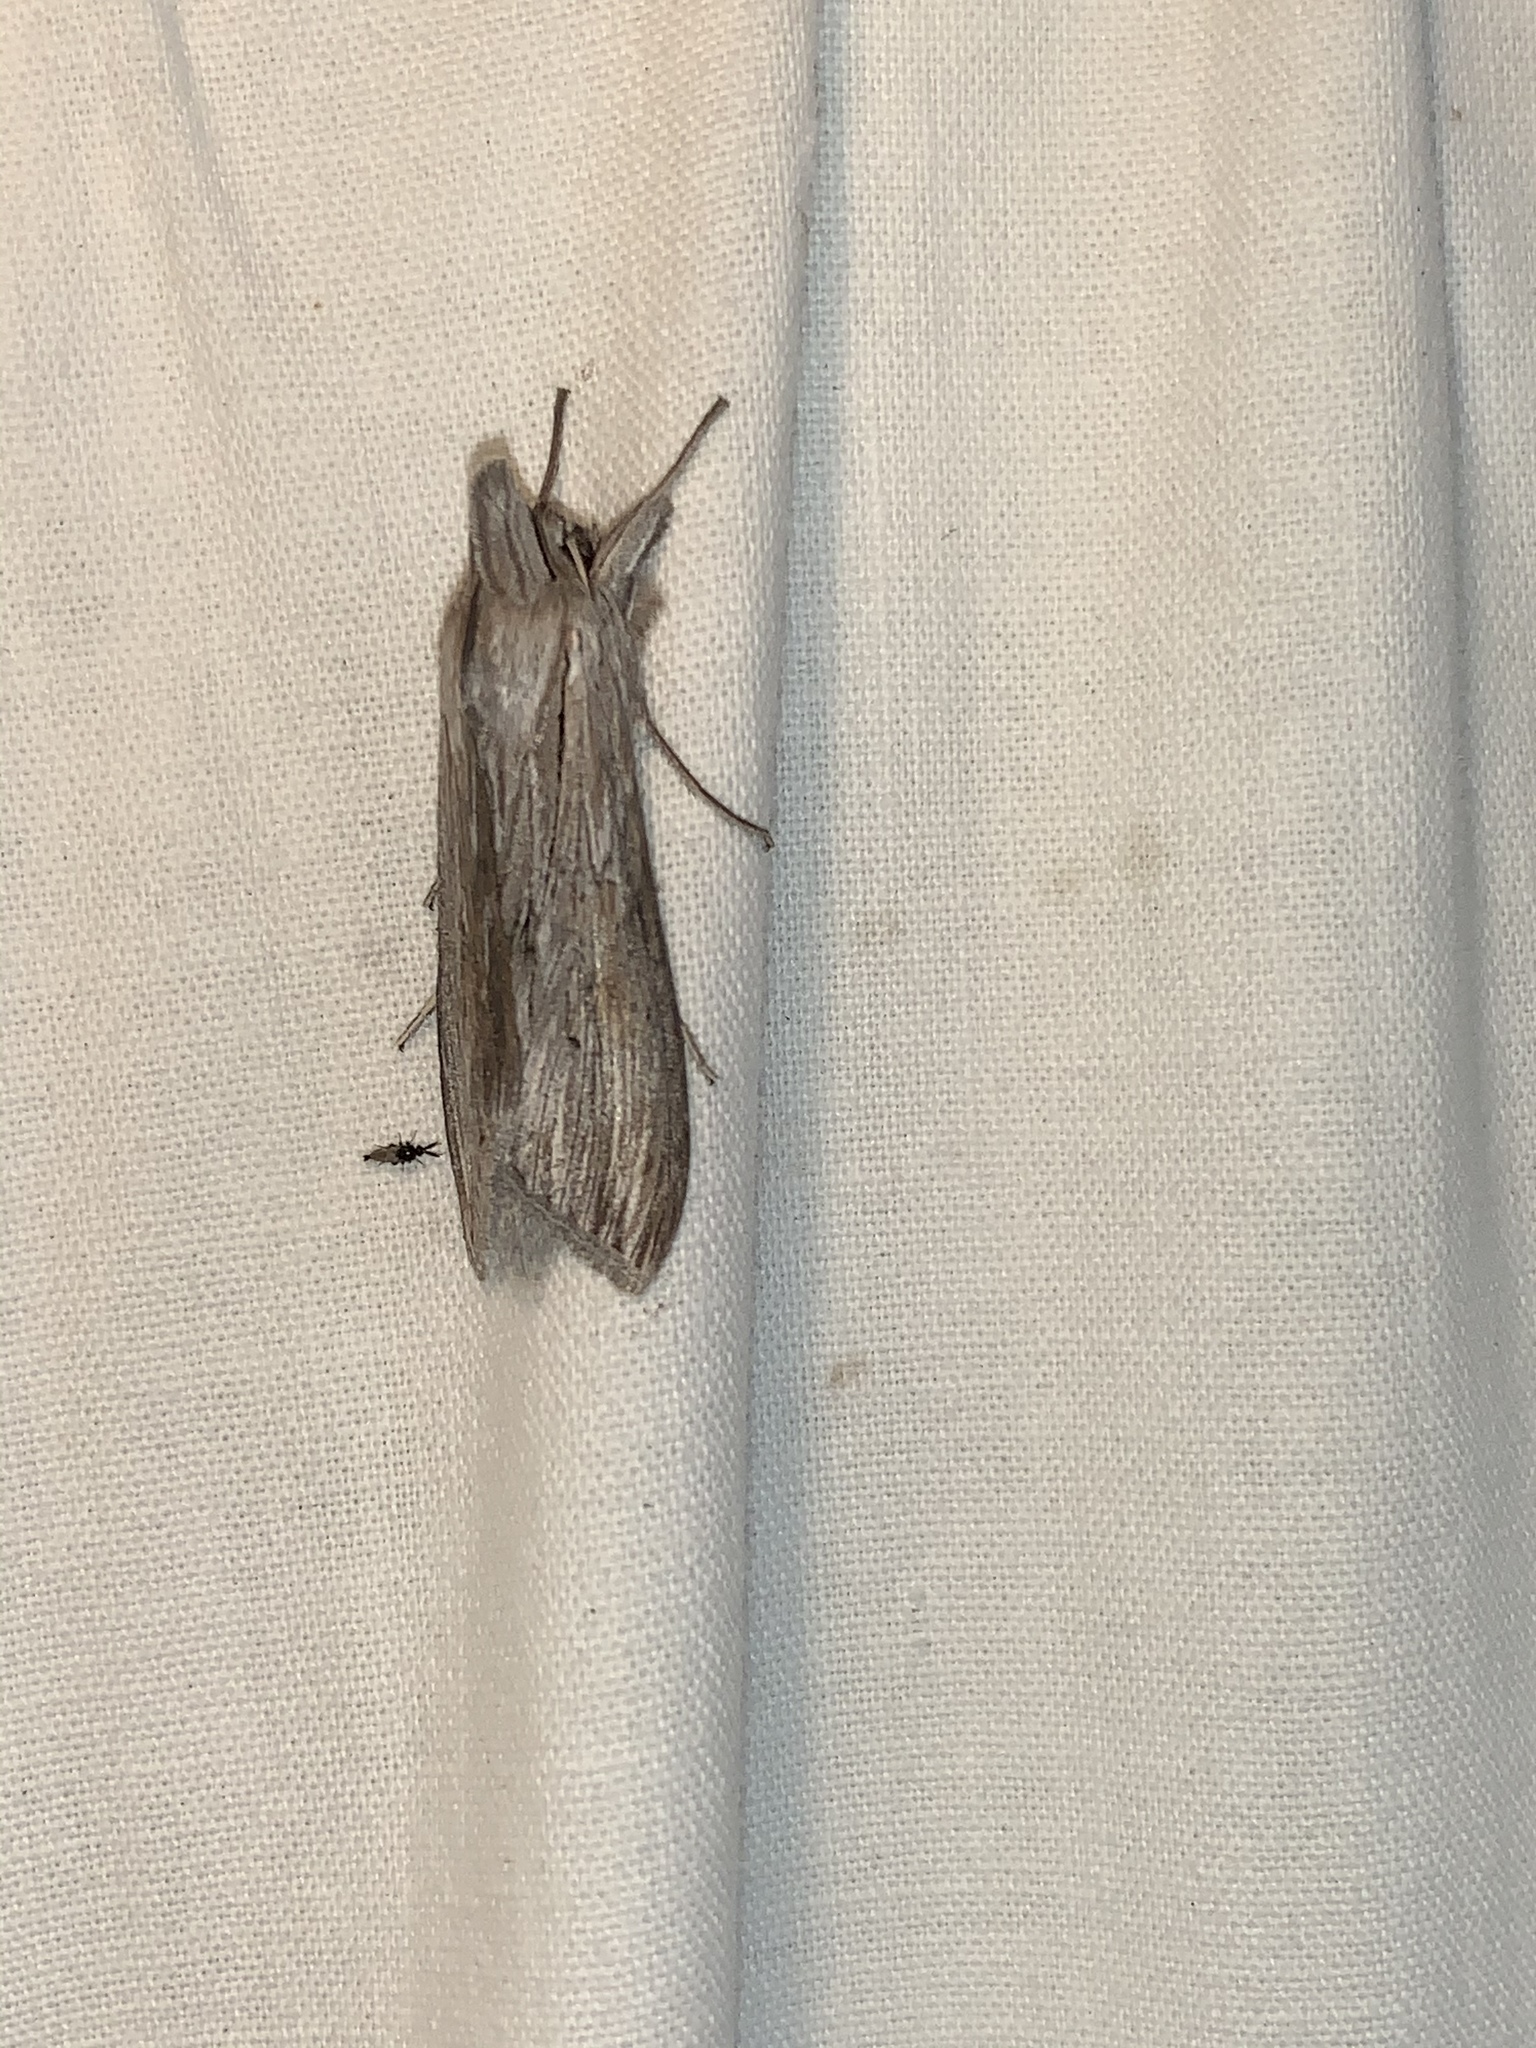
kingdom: Animalia
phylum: Arthropoda
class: Insecta
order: Lepidoptera
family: Noctuidae
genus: Cucullia
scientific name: Cucullia intermedia
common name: Goldenrod cutworm
